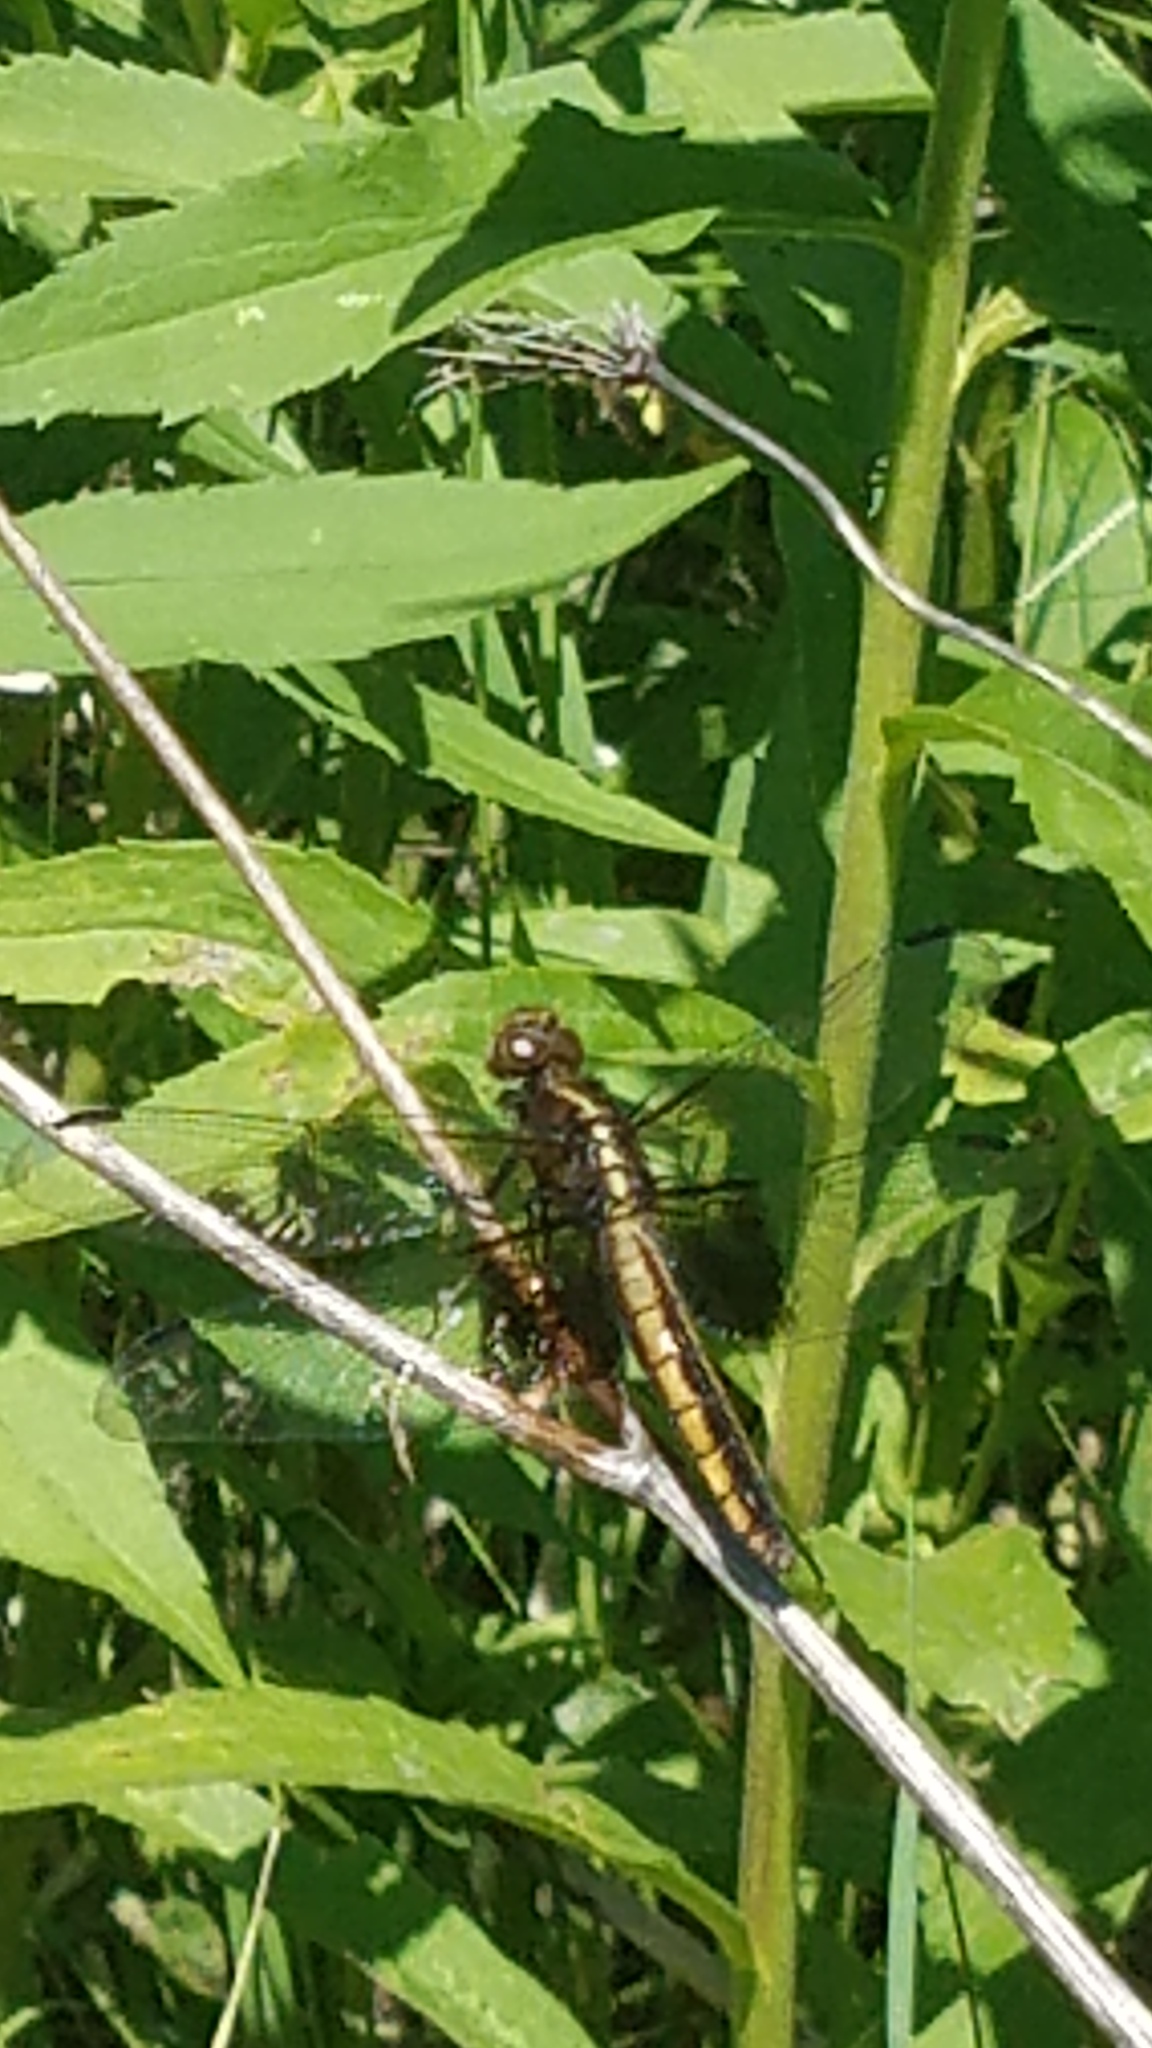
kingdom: Animalia
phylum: Arthropoda
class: Insecta
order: Odonata
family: Libellulidae
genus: Libellula
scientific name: Libellula luctuosa
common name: Widow skimmer
